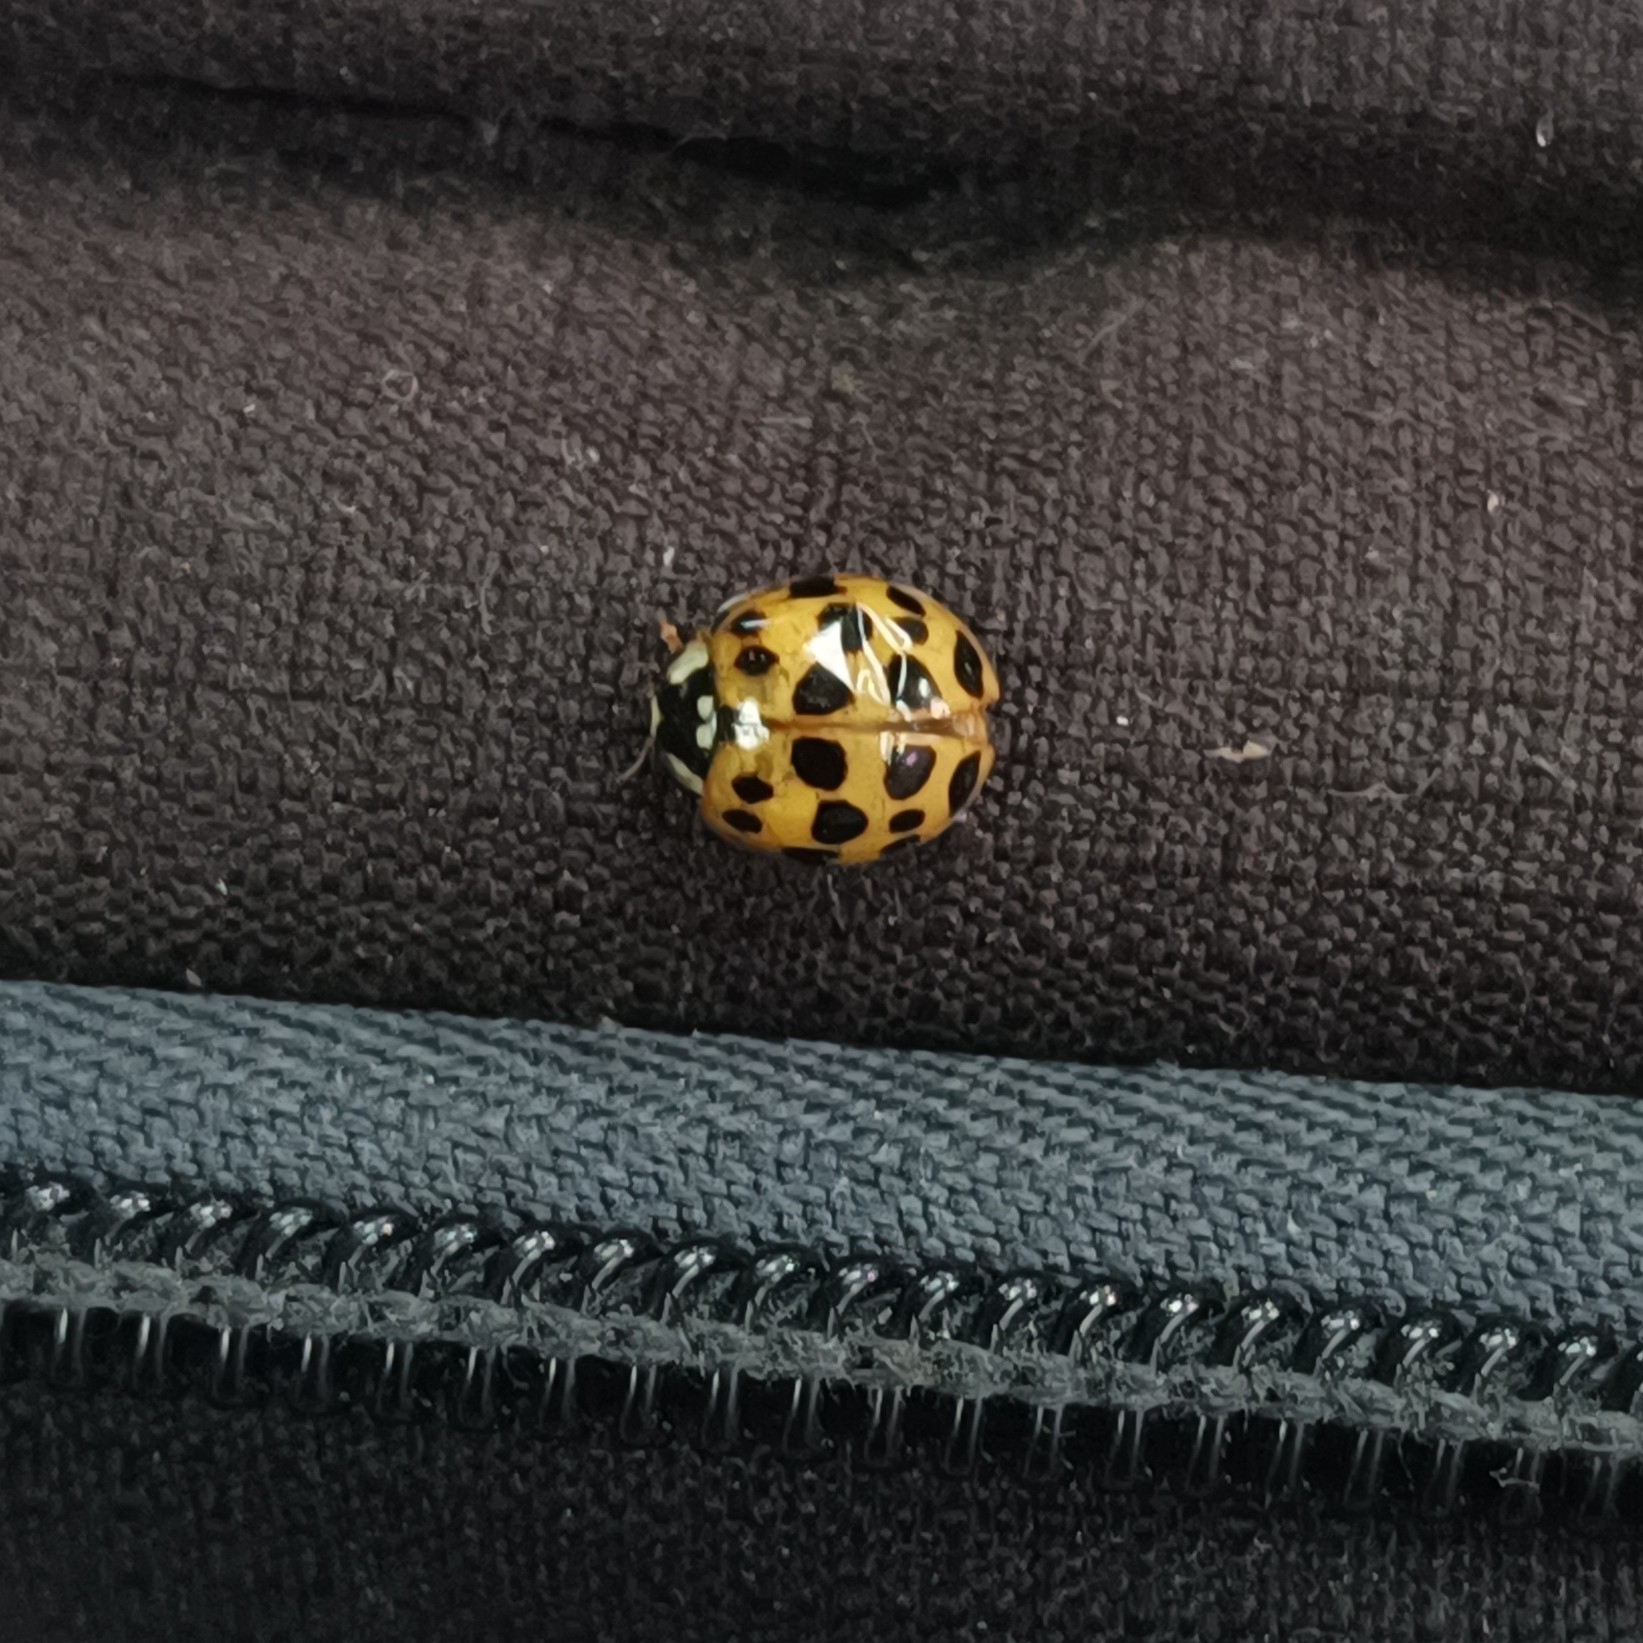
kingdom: Animalia
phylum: Arthropoda
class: Insecta
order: Coleoptera
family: Coccinellidae
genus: Harmonia
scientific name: Harmonia axyridis
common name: Harlequin ladybird
